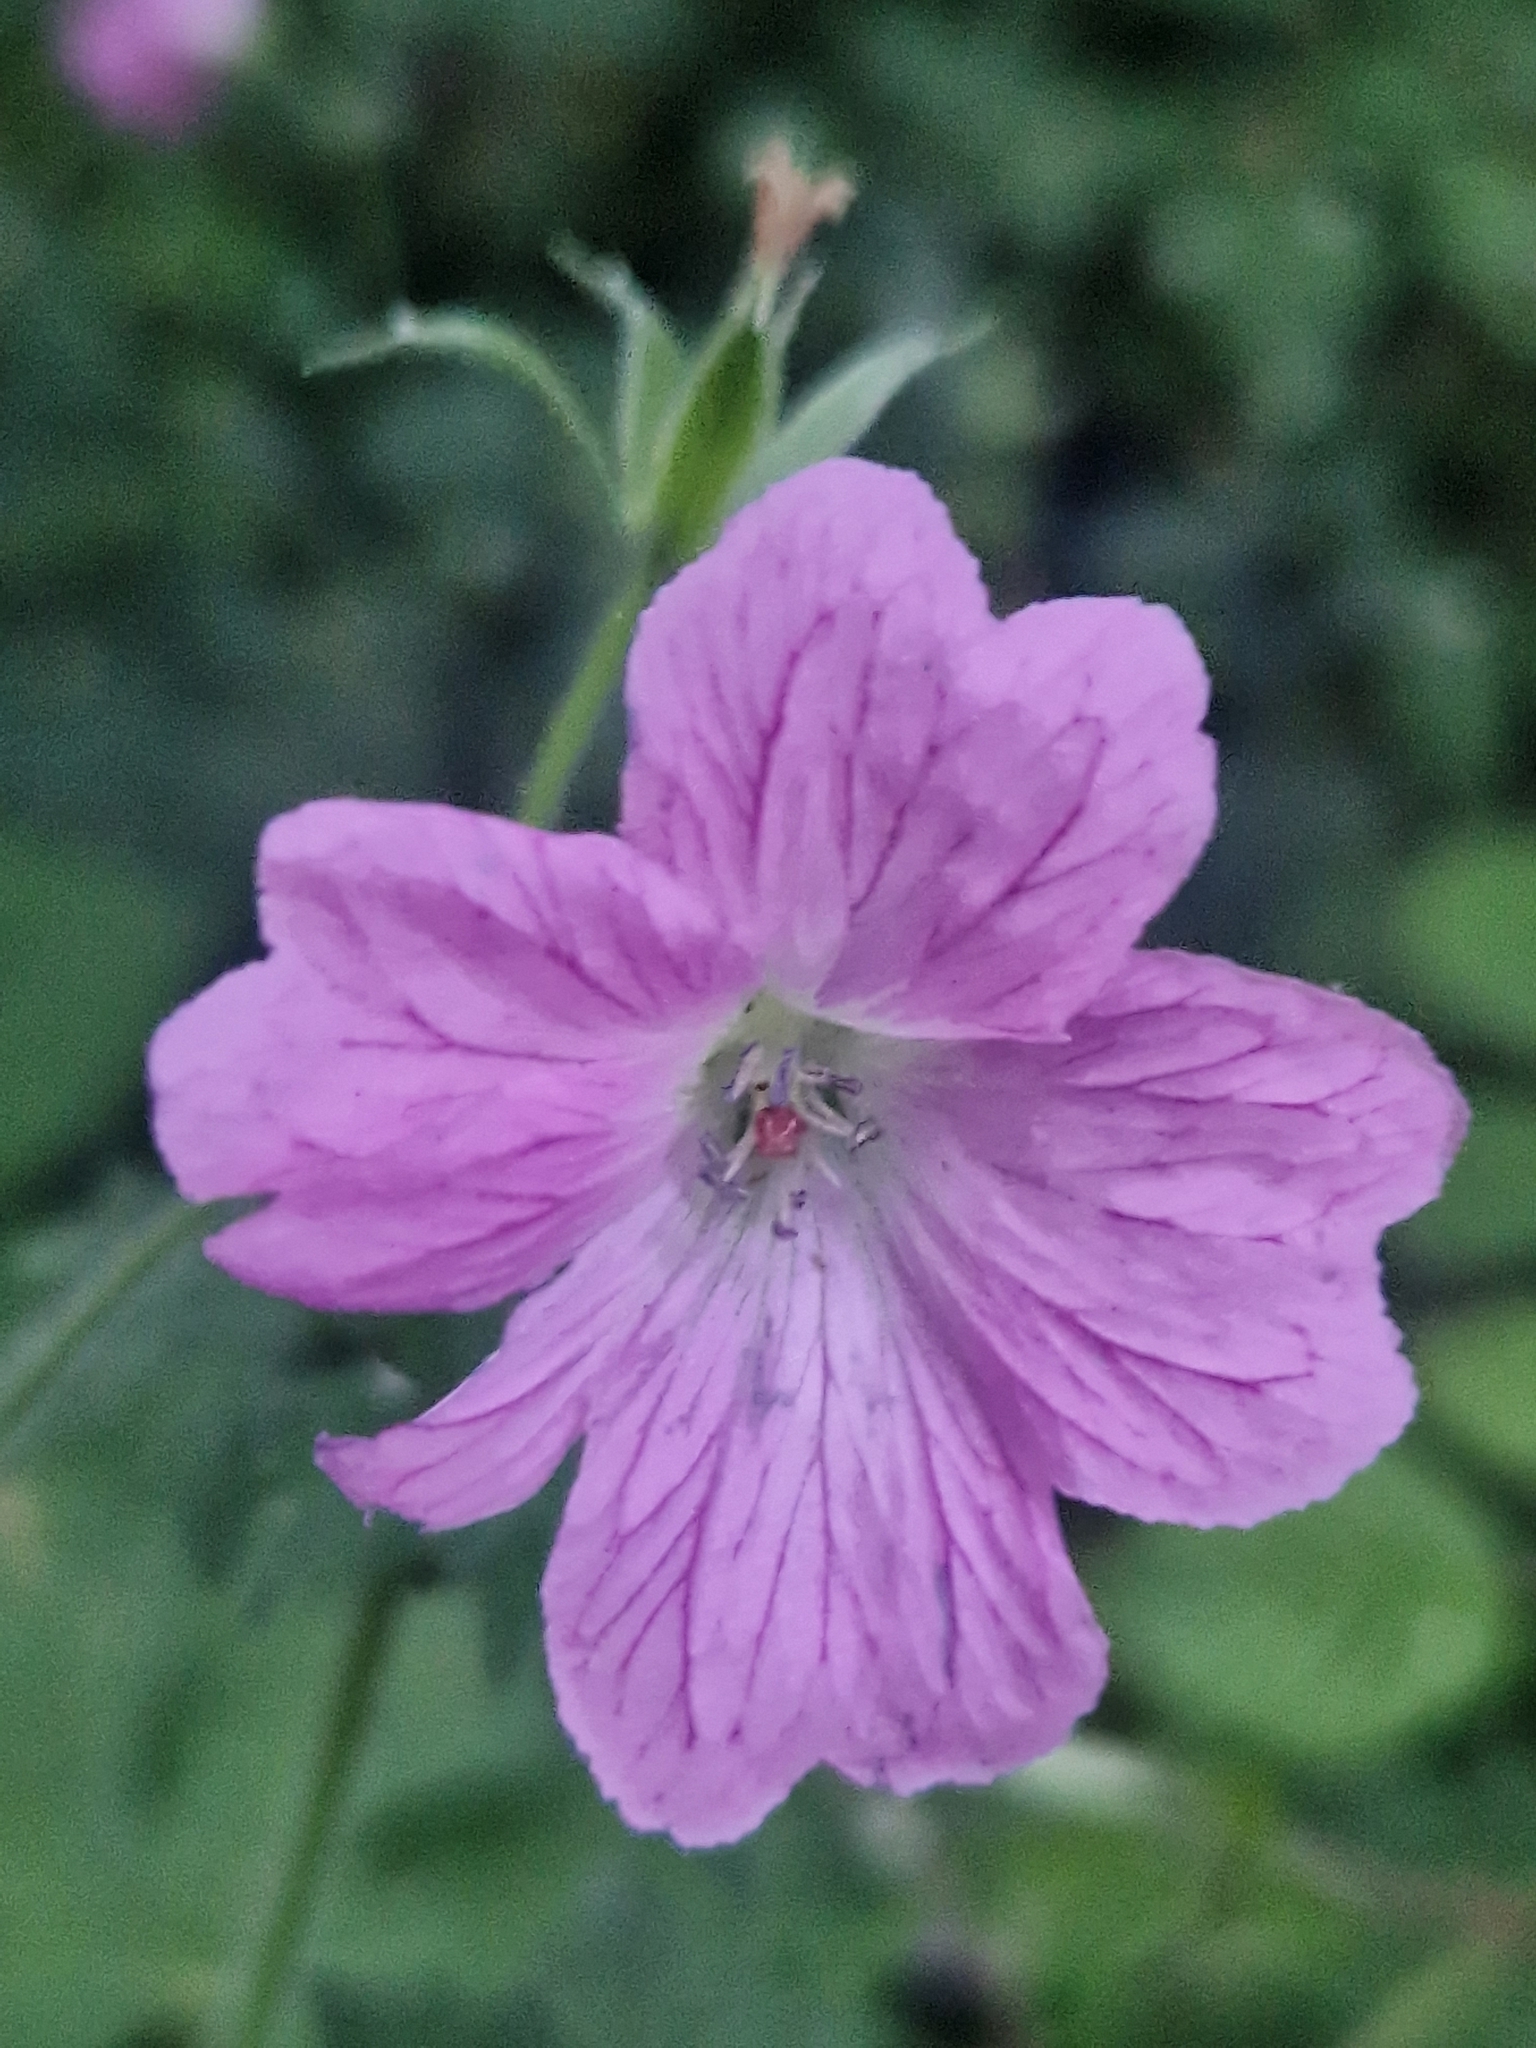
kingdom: Plantae
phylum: Tracheophyta
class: Magnoliopsida
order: Geraniales
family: Geraniaceae
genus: Geranium
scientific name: Geranium oxonianum
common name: Druce's crane's-bill
